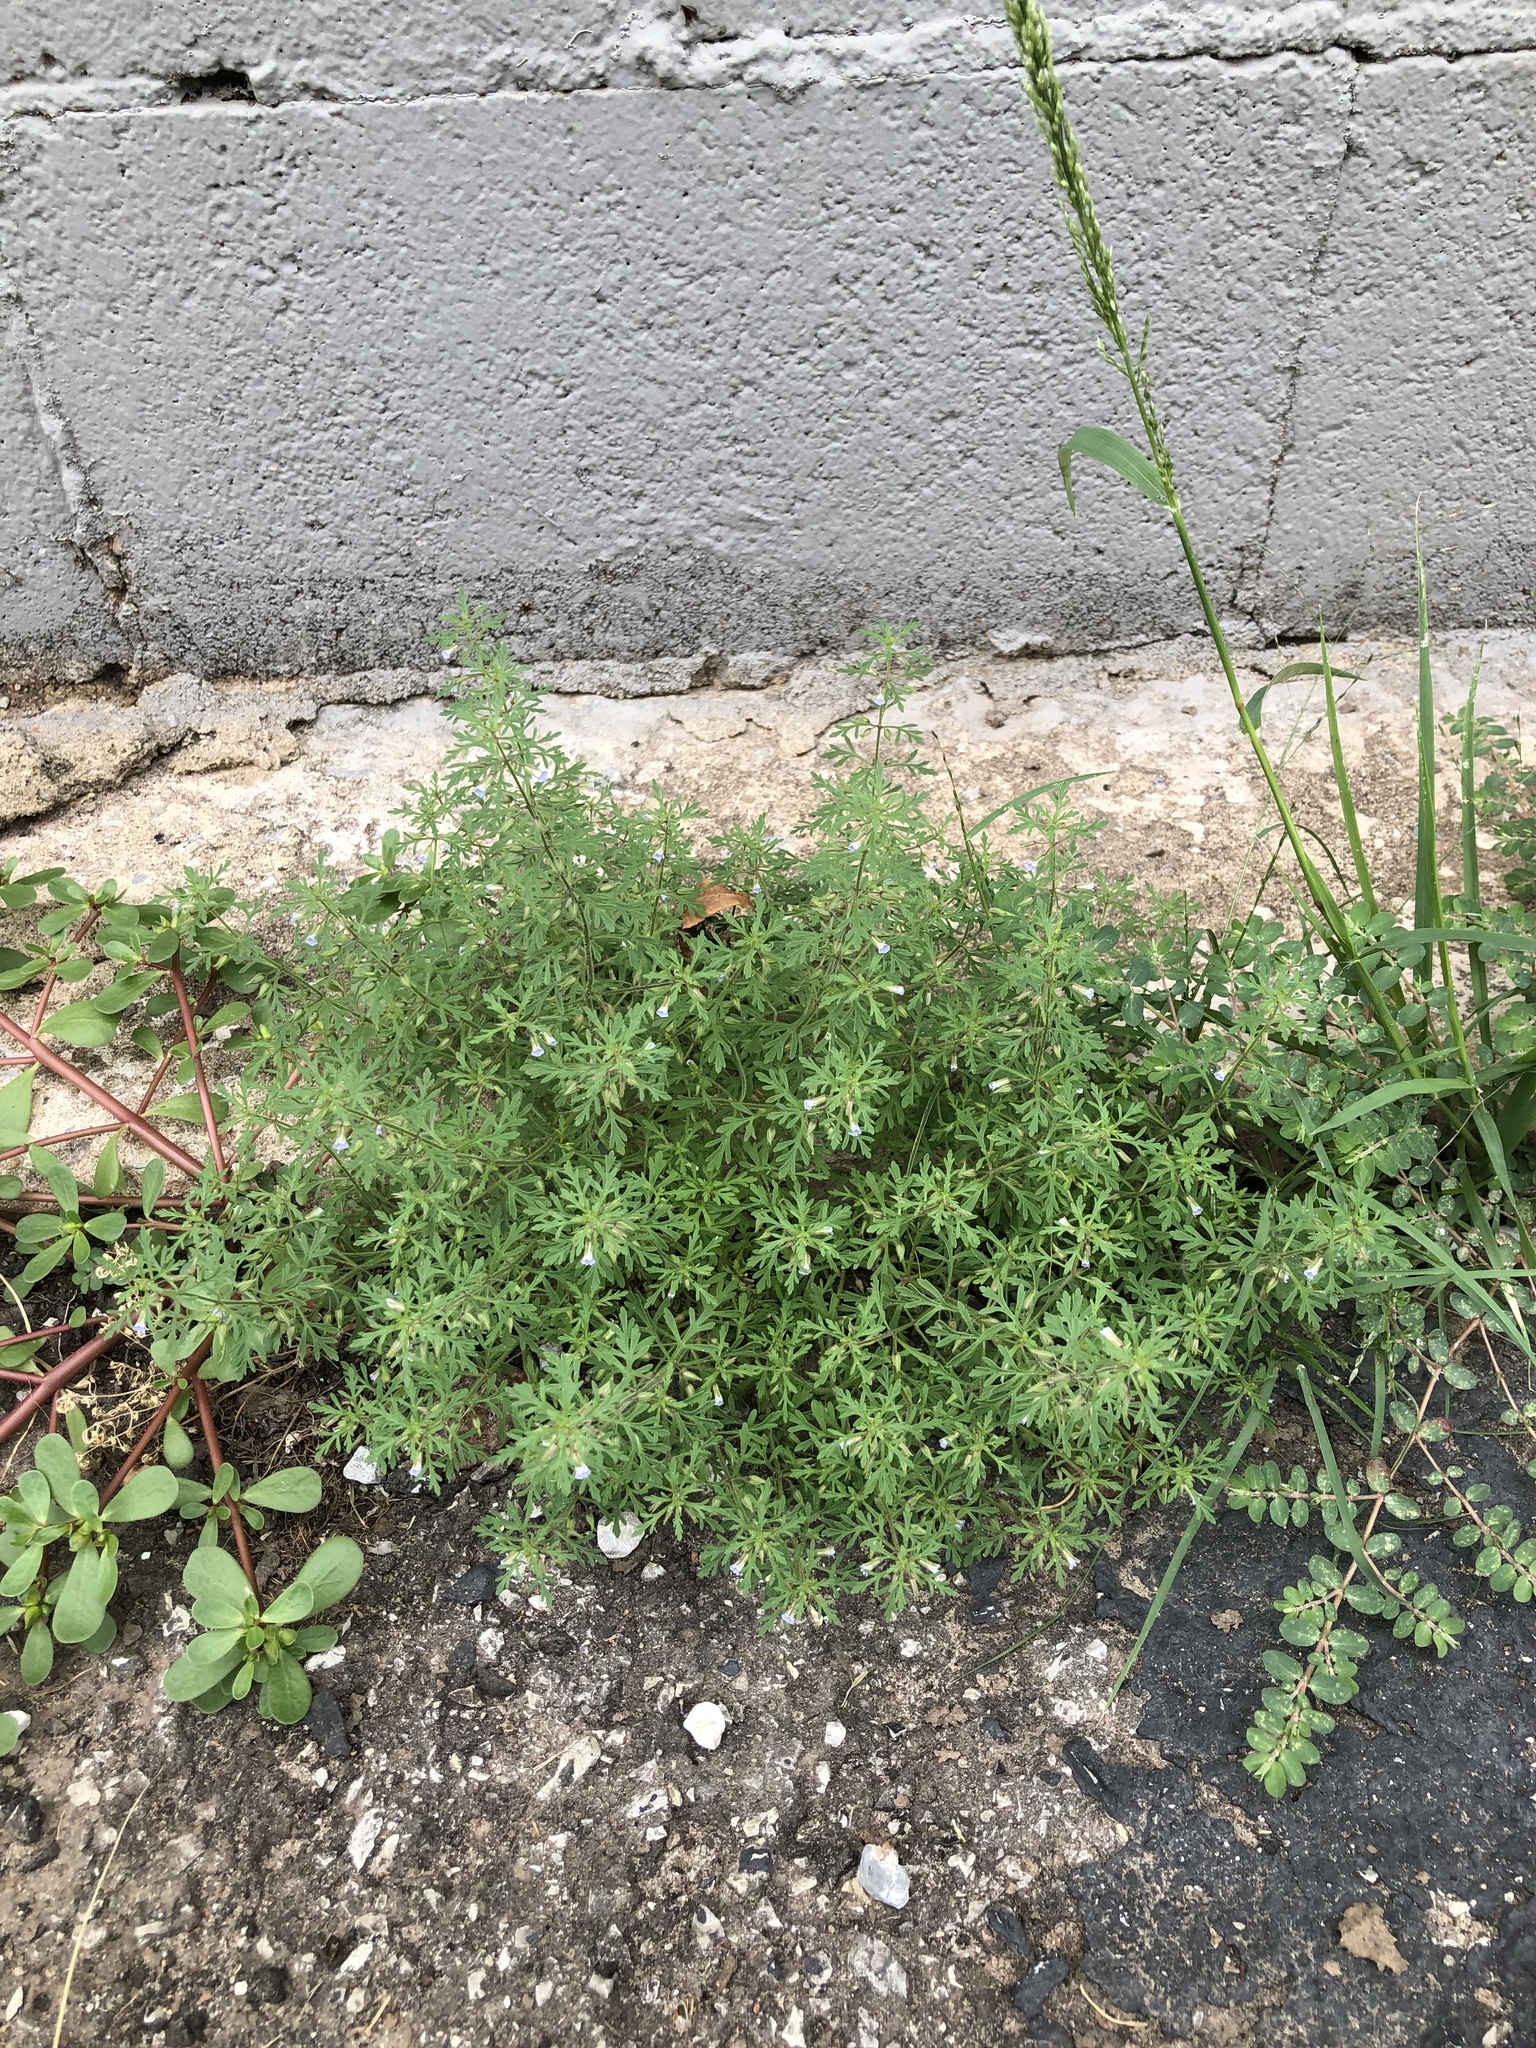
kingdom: Plantae
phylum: Tracheophyta
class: Magnoliopsida
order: Lamiales
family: Plantaginaceae
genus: Leucospora
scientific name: Leucospora multifida
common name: Narrow-leaf paleseed
